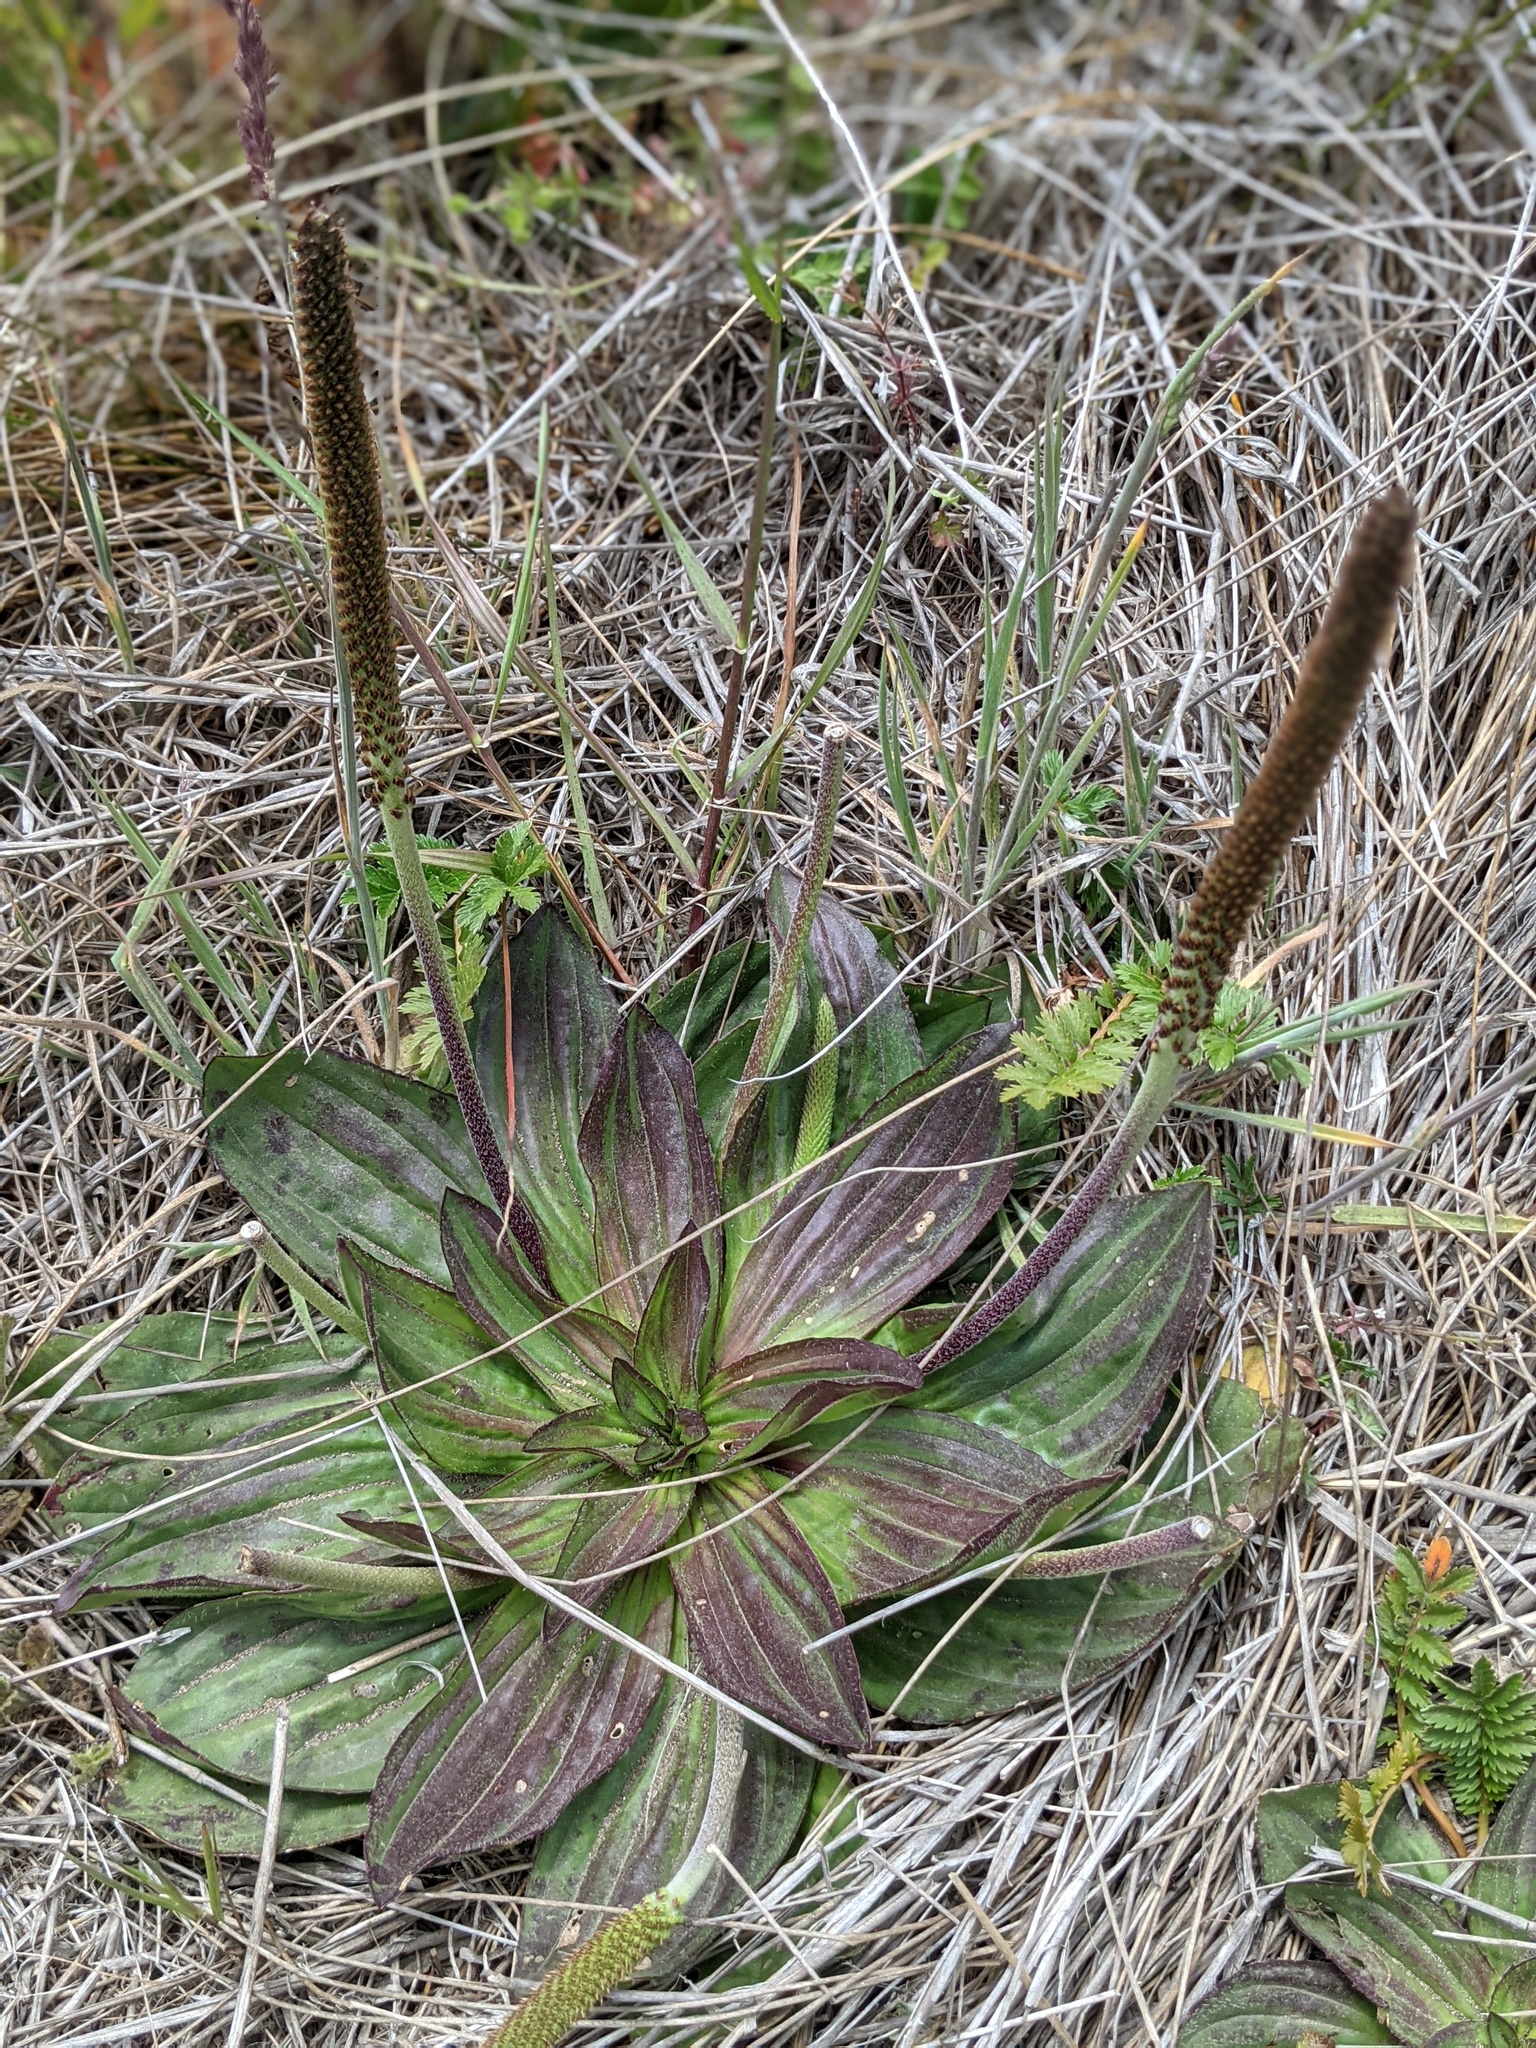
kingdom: Plantae
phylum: Tracheophyta
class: Magnoliopsida
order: Lamiales
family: Plantaginaceae
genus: Plantago
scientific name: Plantago subnuda
